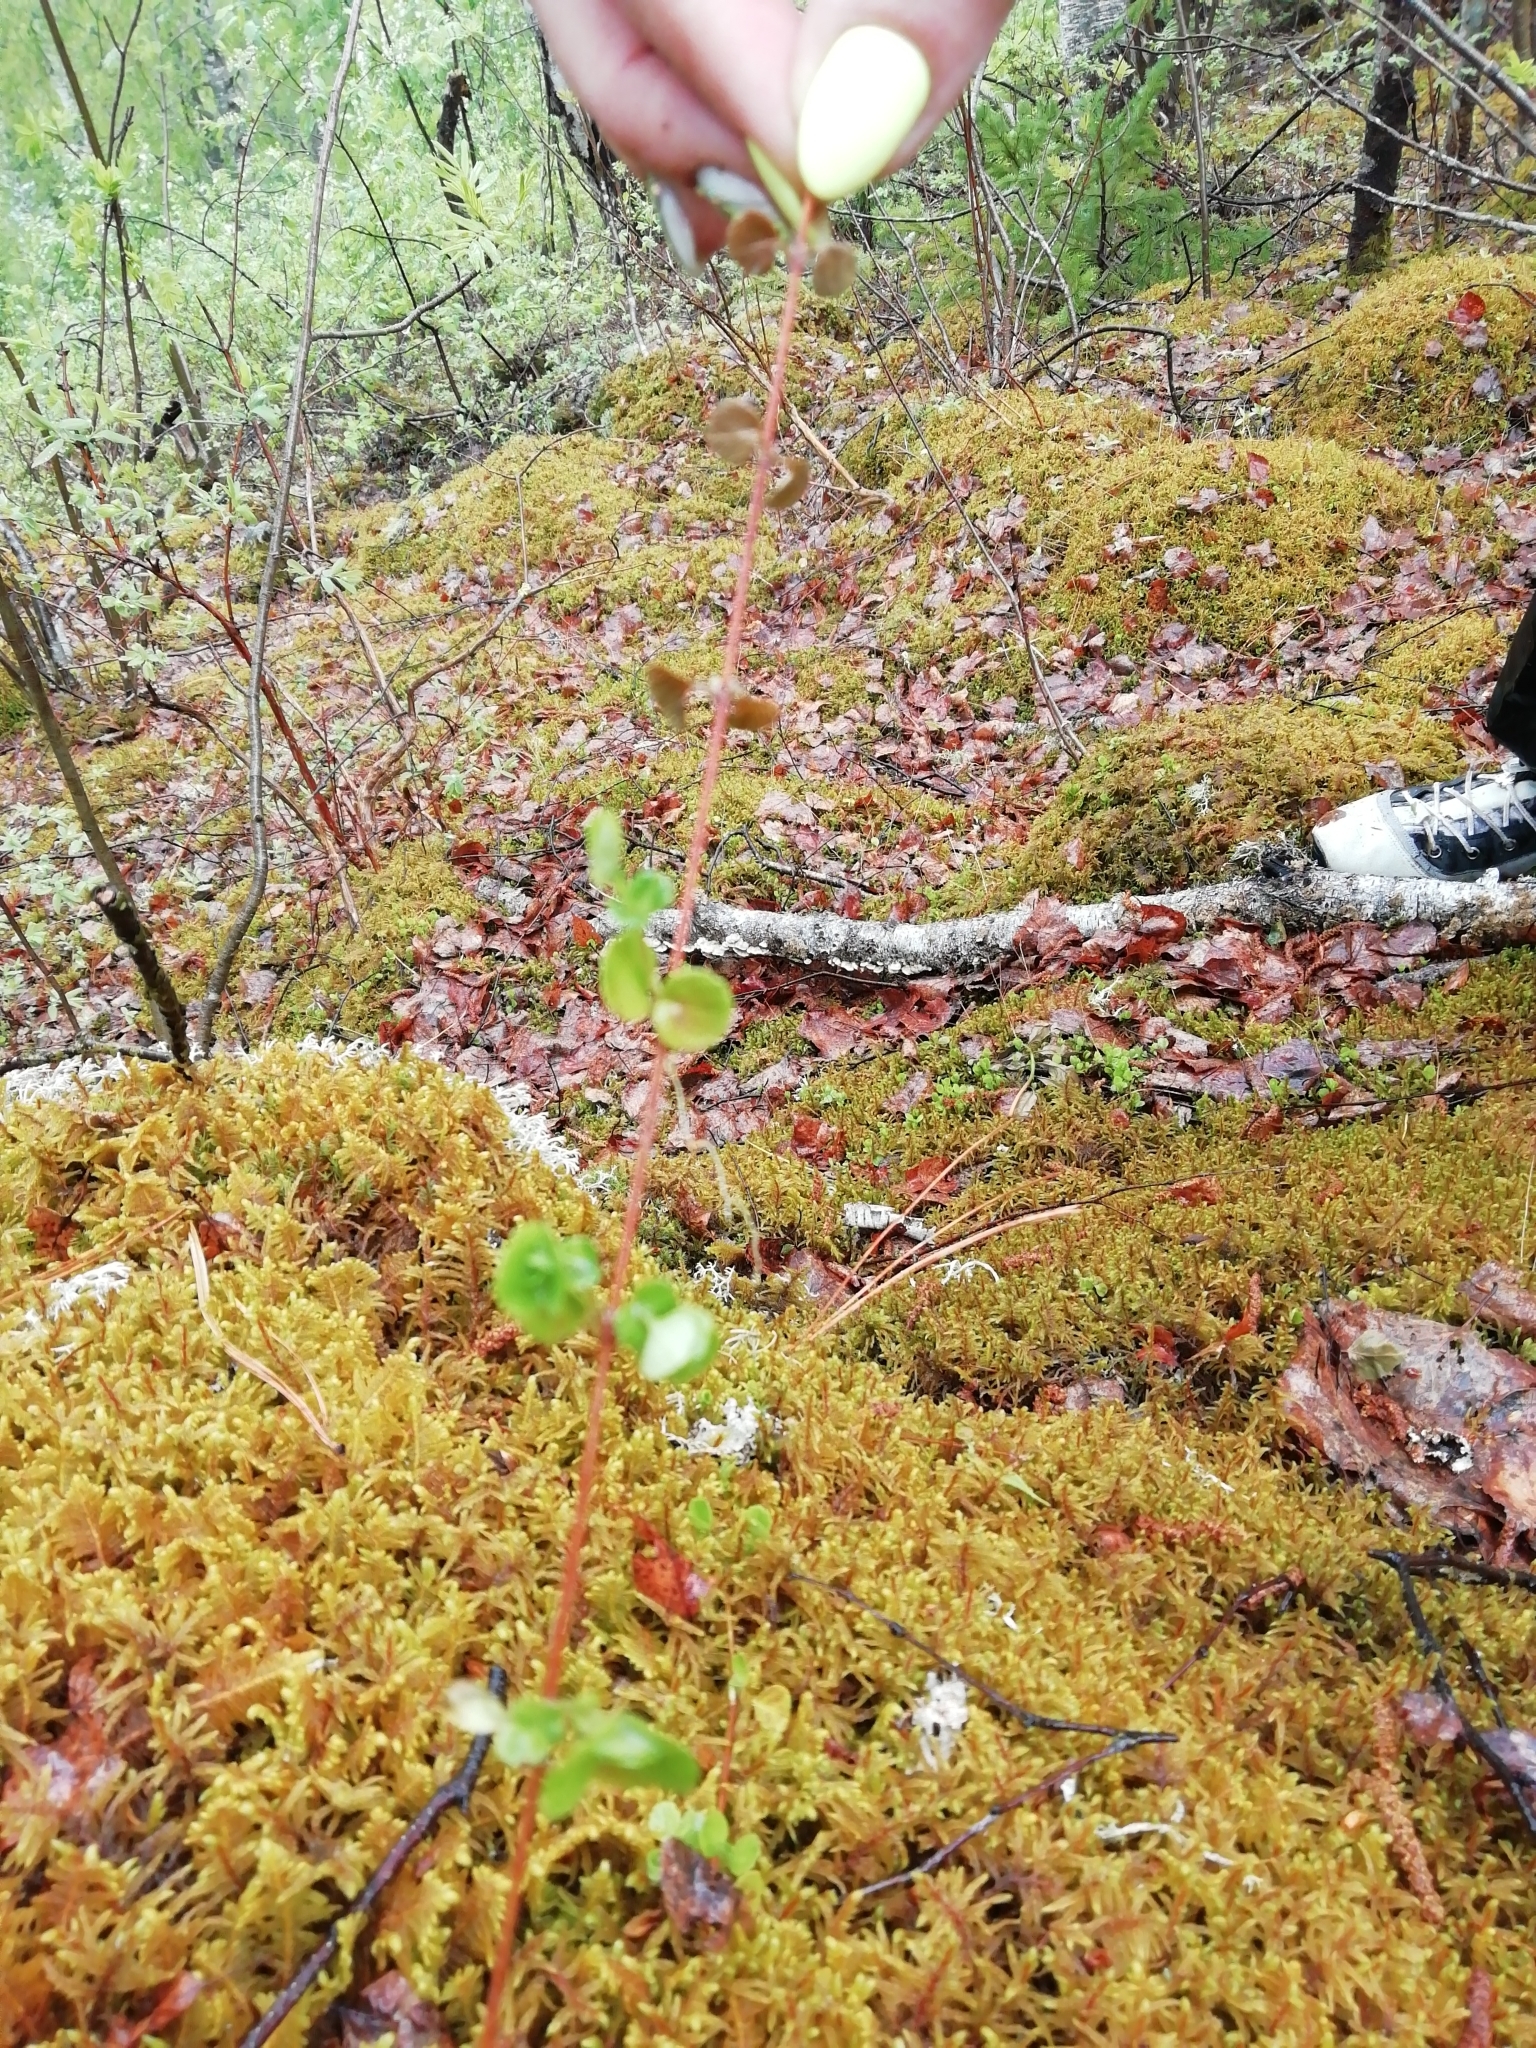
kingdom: Plantae
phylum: Tracheophyta
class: Magnoliopsida
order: Dipsacales
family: Caprifoliaceae
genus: Linnaea
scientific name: Linnaea borealis
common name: Twinflower
